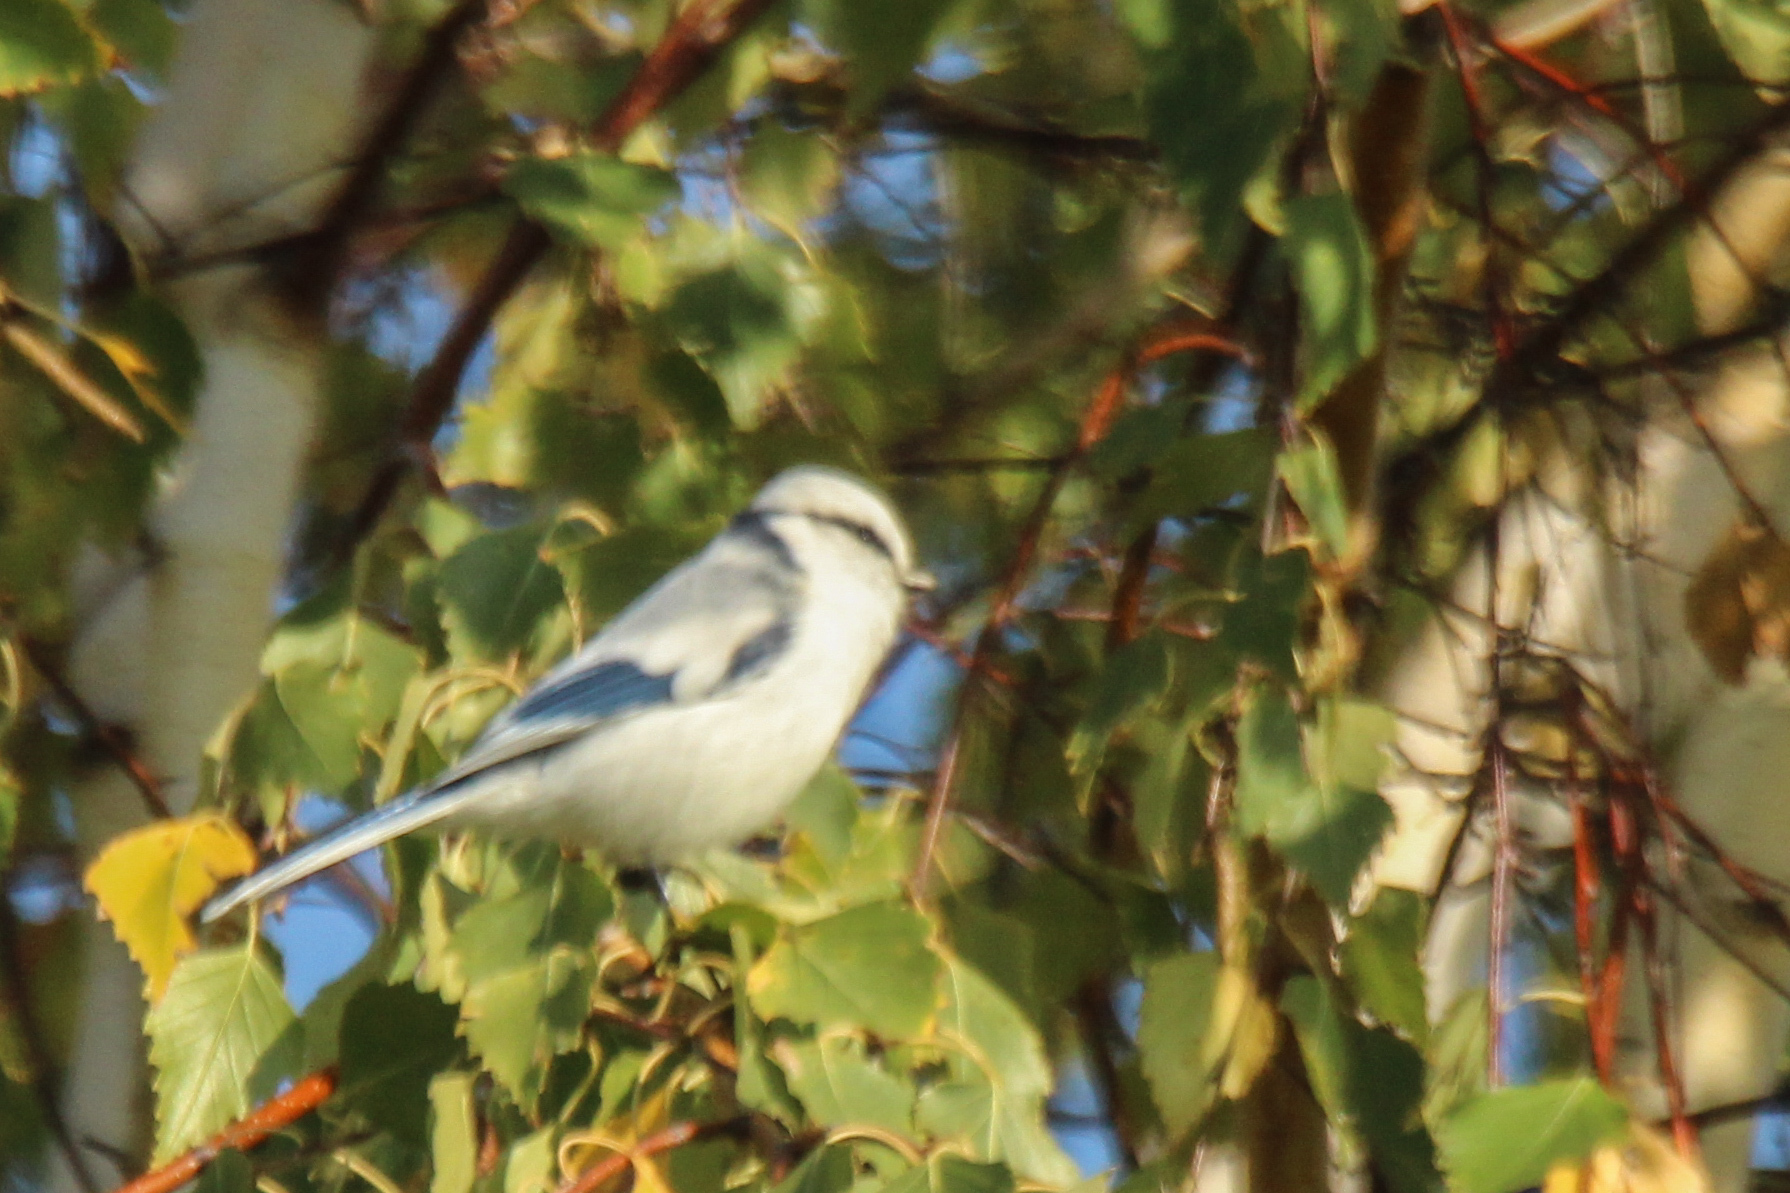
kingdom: Animalia
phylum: Chordata
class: Aves
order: Passeriformes
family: Paridae
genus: Cyanistes
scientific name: Cyanistes cyanus
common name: Azure tit
